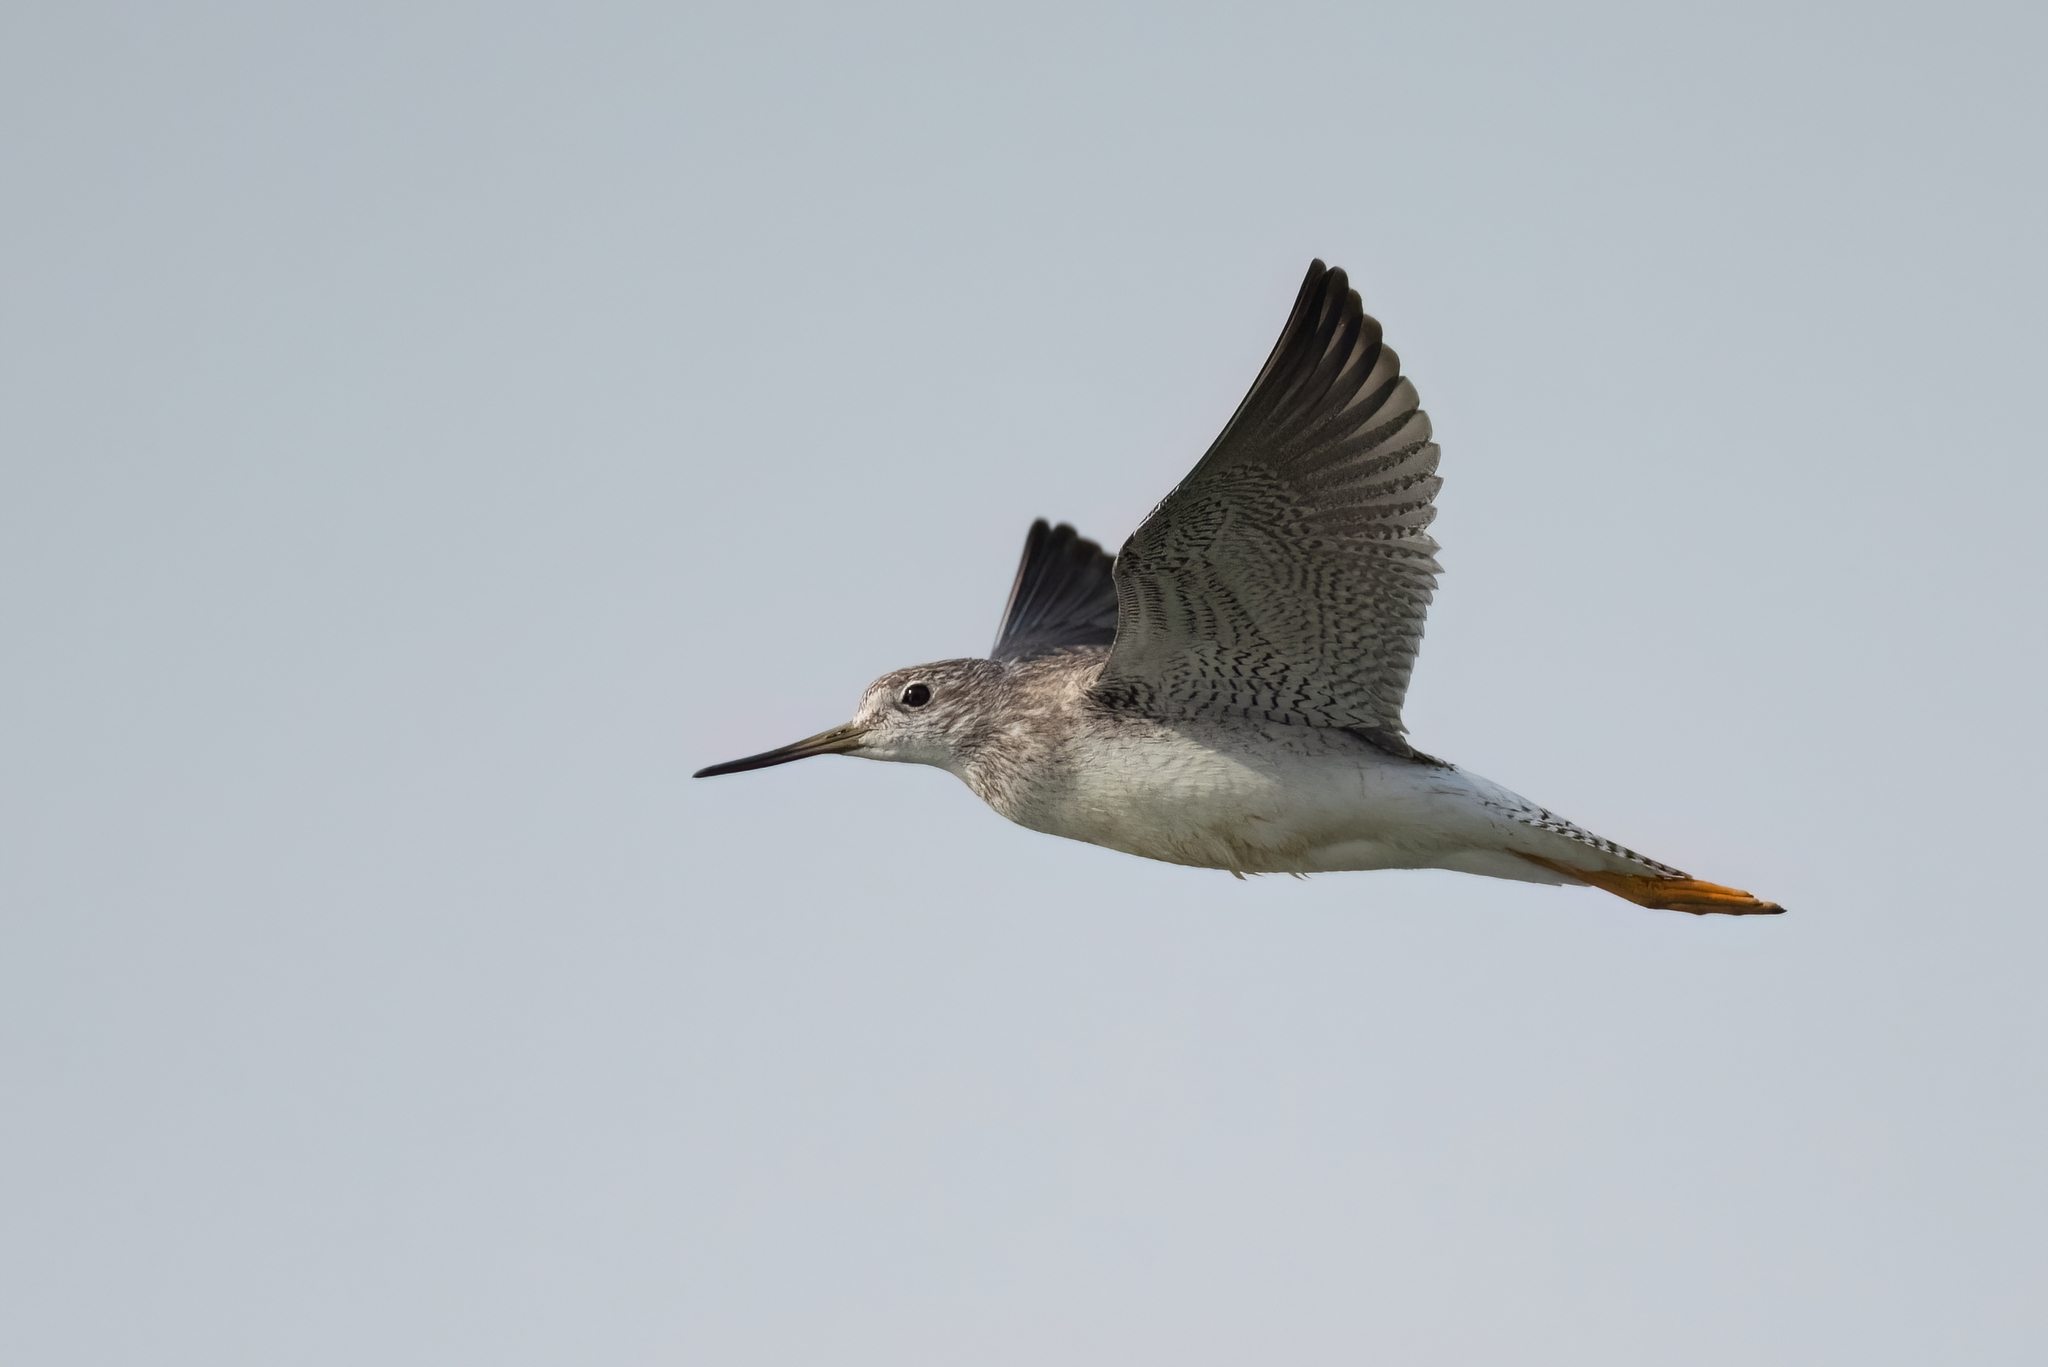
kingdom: Animalia
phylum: Chordata
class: Aves
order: Charadriiformes
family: Scolopacidae
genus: Tringa
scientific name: Tringa melanoleuca
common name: Greater yellowlegs
